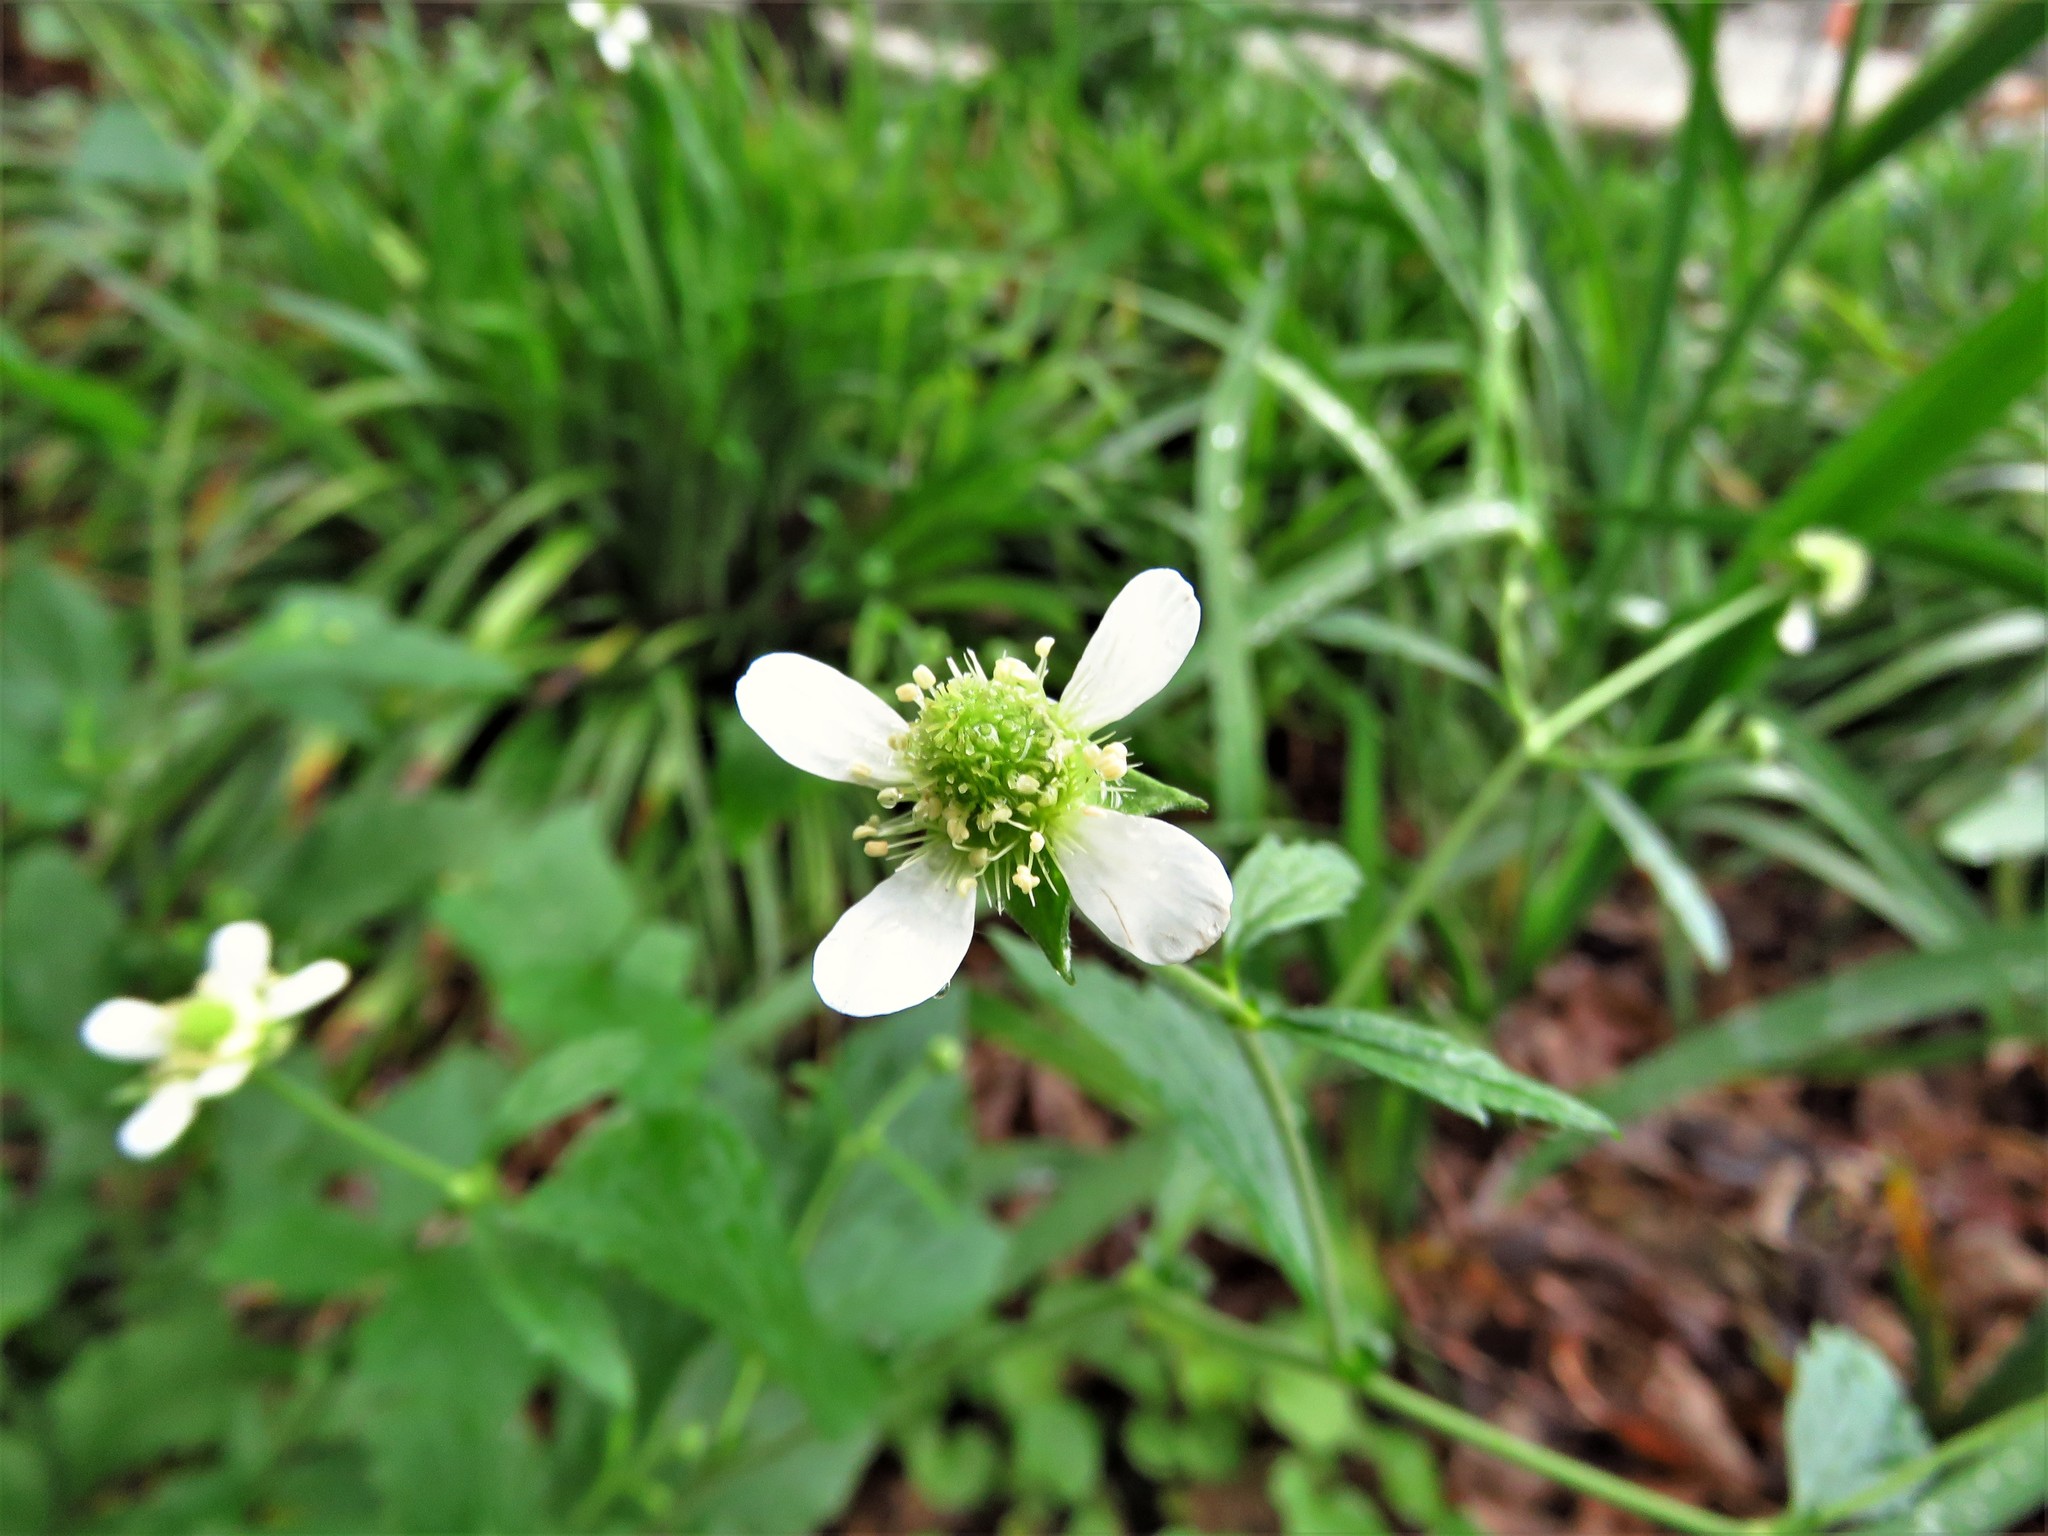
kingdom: Plantae
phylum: Tracheophyta
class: Magnoliopsida
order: Rosales
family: Rosaceae
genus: Geum
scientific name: Geum canadense
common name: White avens
